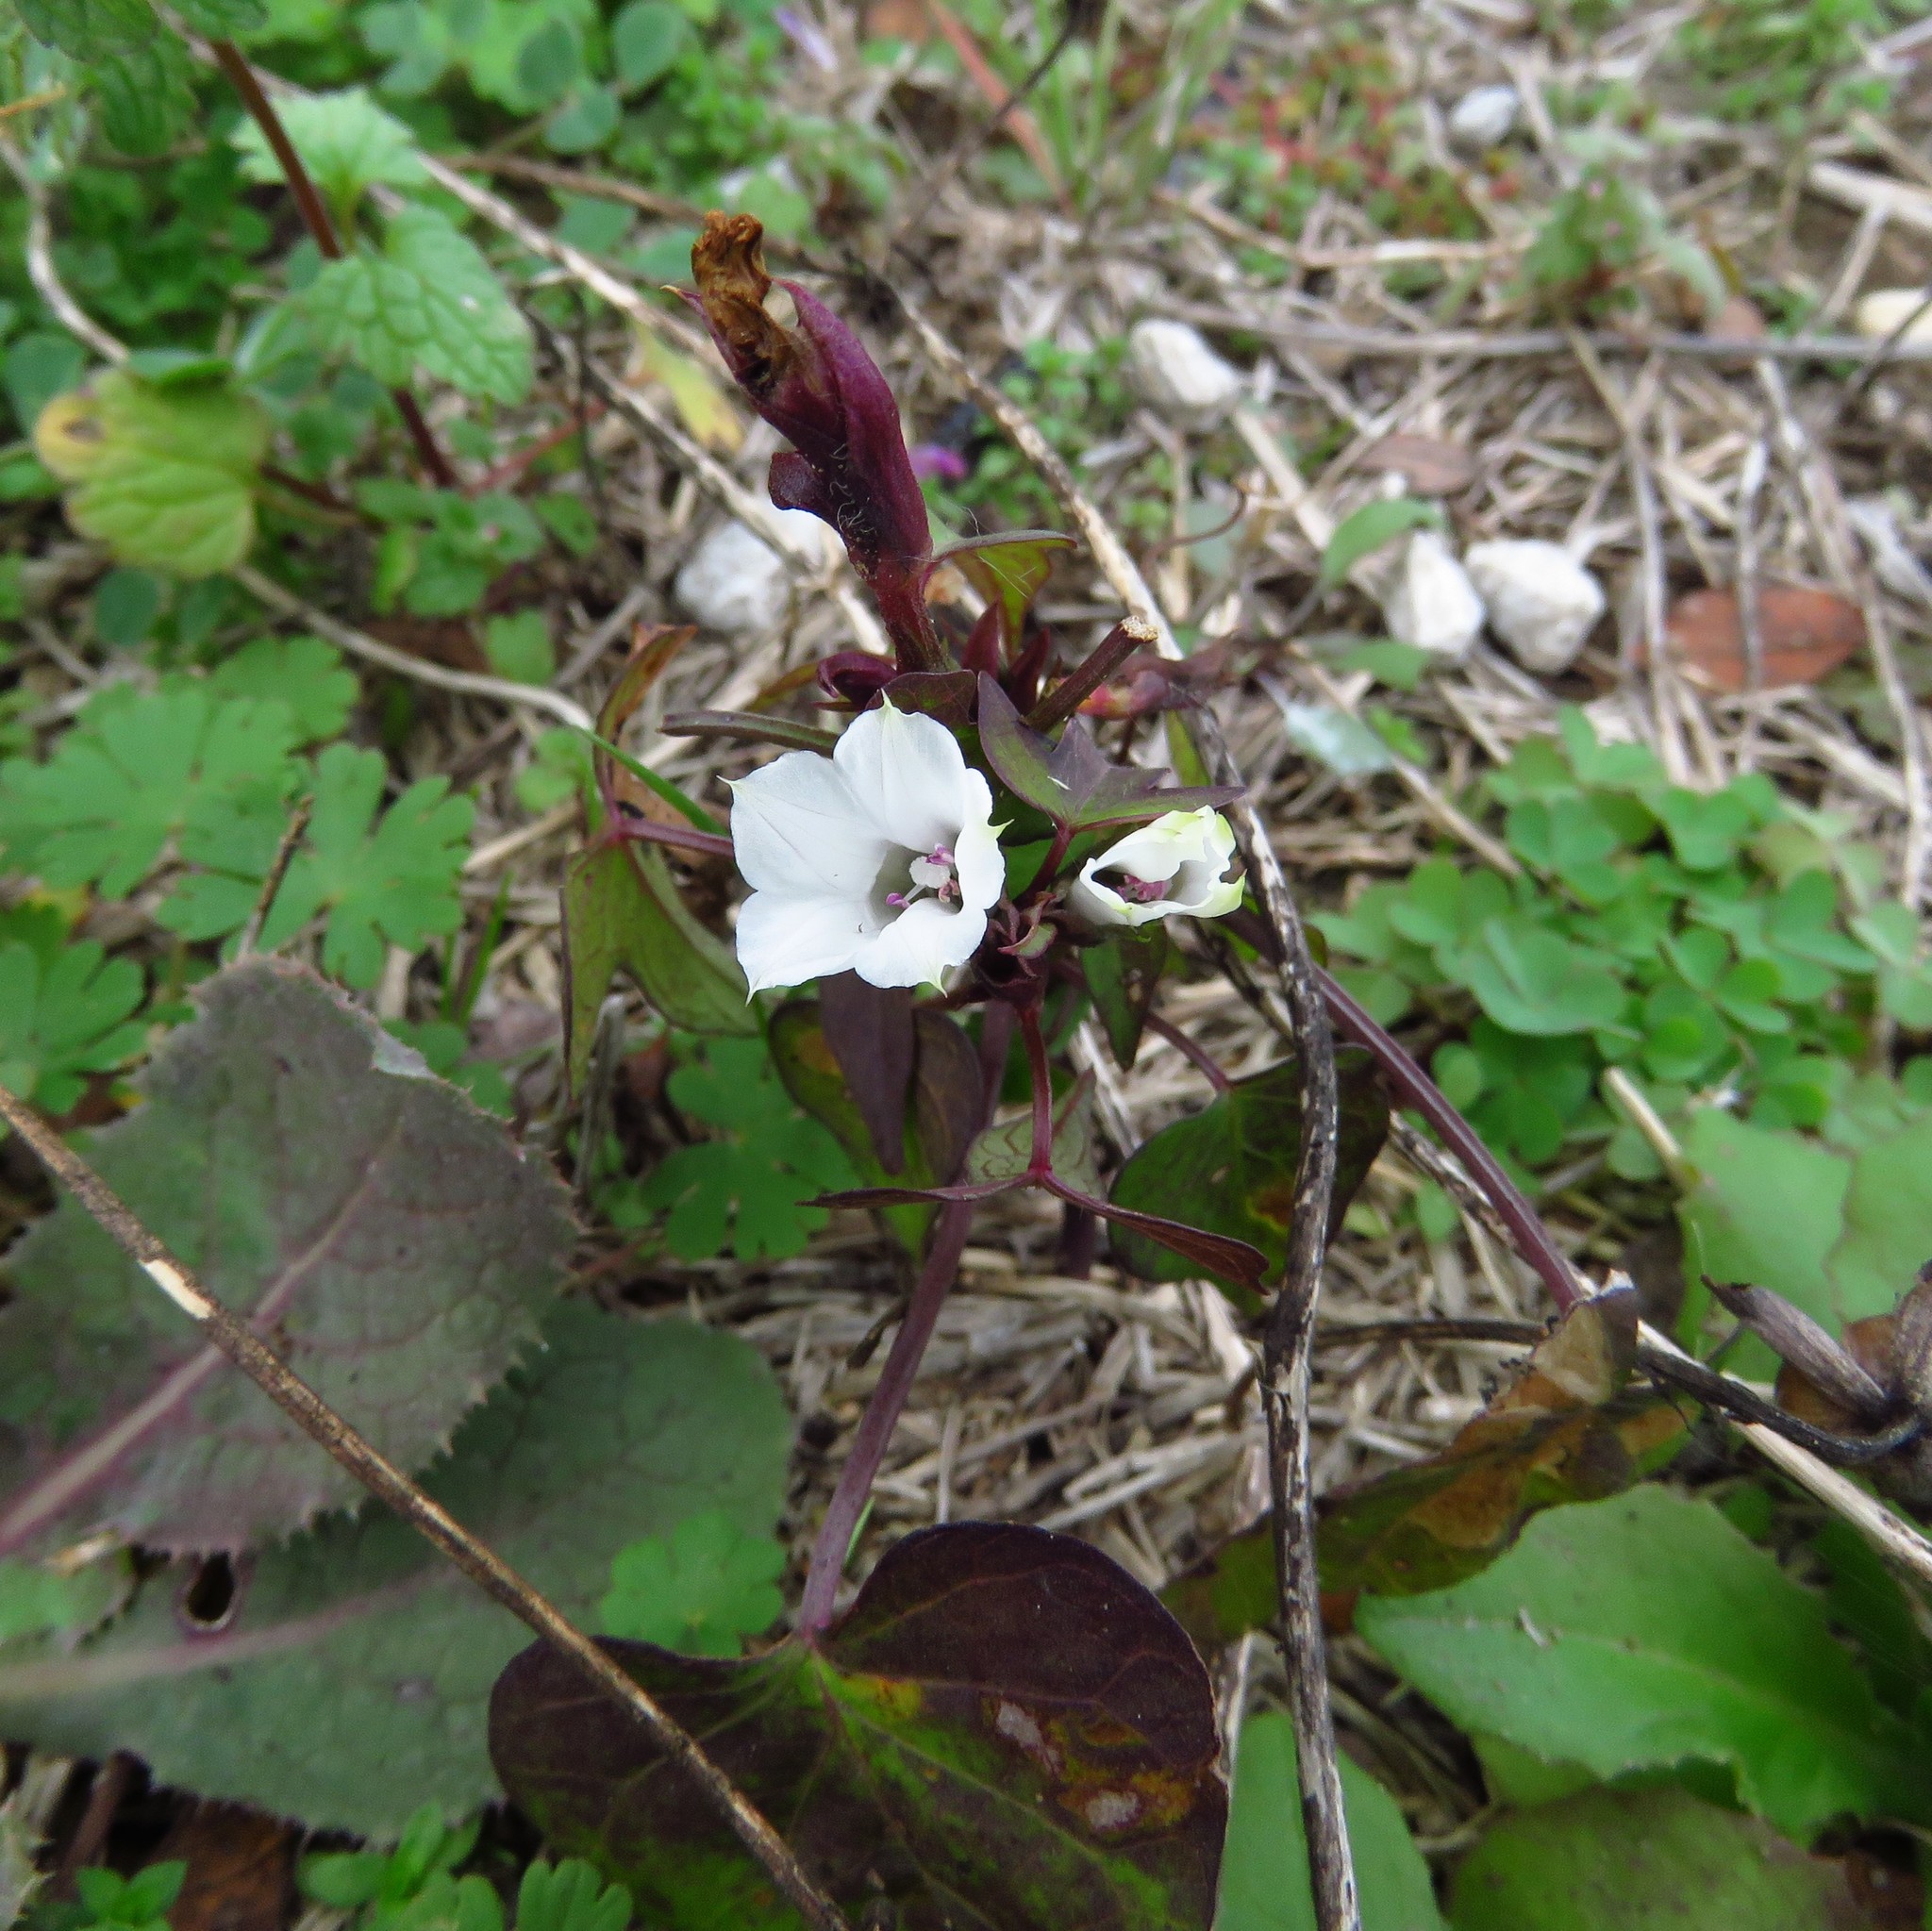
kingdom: Plantae
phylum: Tracheophyta
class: Magnoliopsida
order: Solanales
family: Convolvulaceae
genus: Ipomoea
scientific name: Ipomoea lacunosa
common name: White morning-glory
